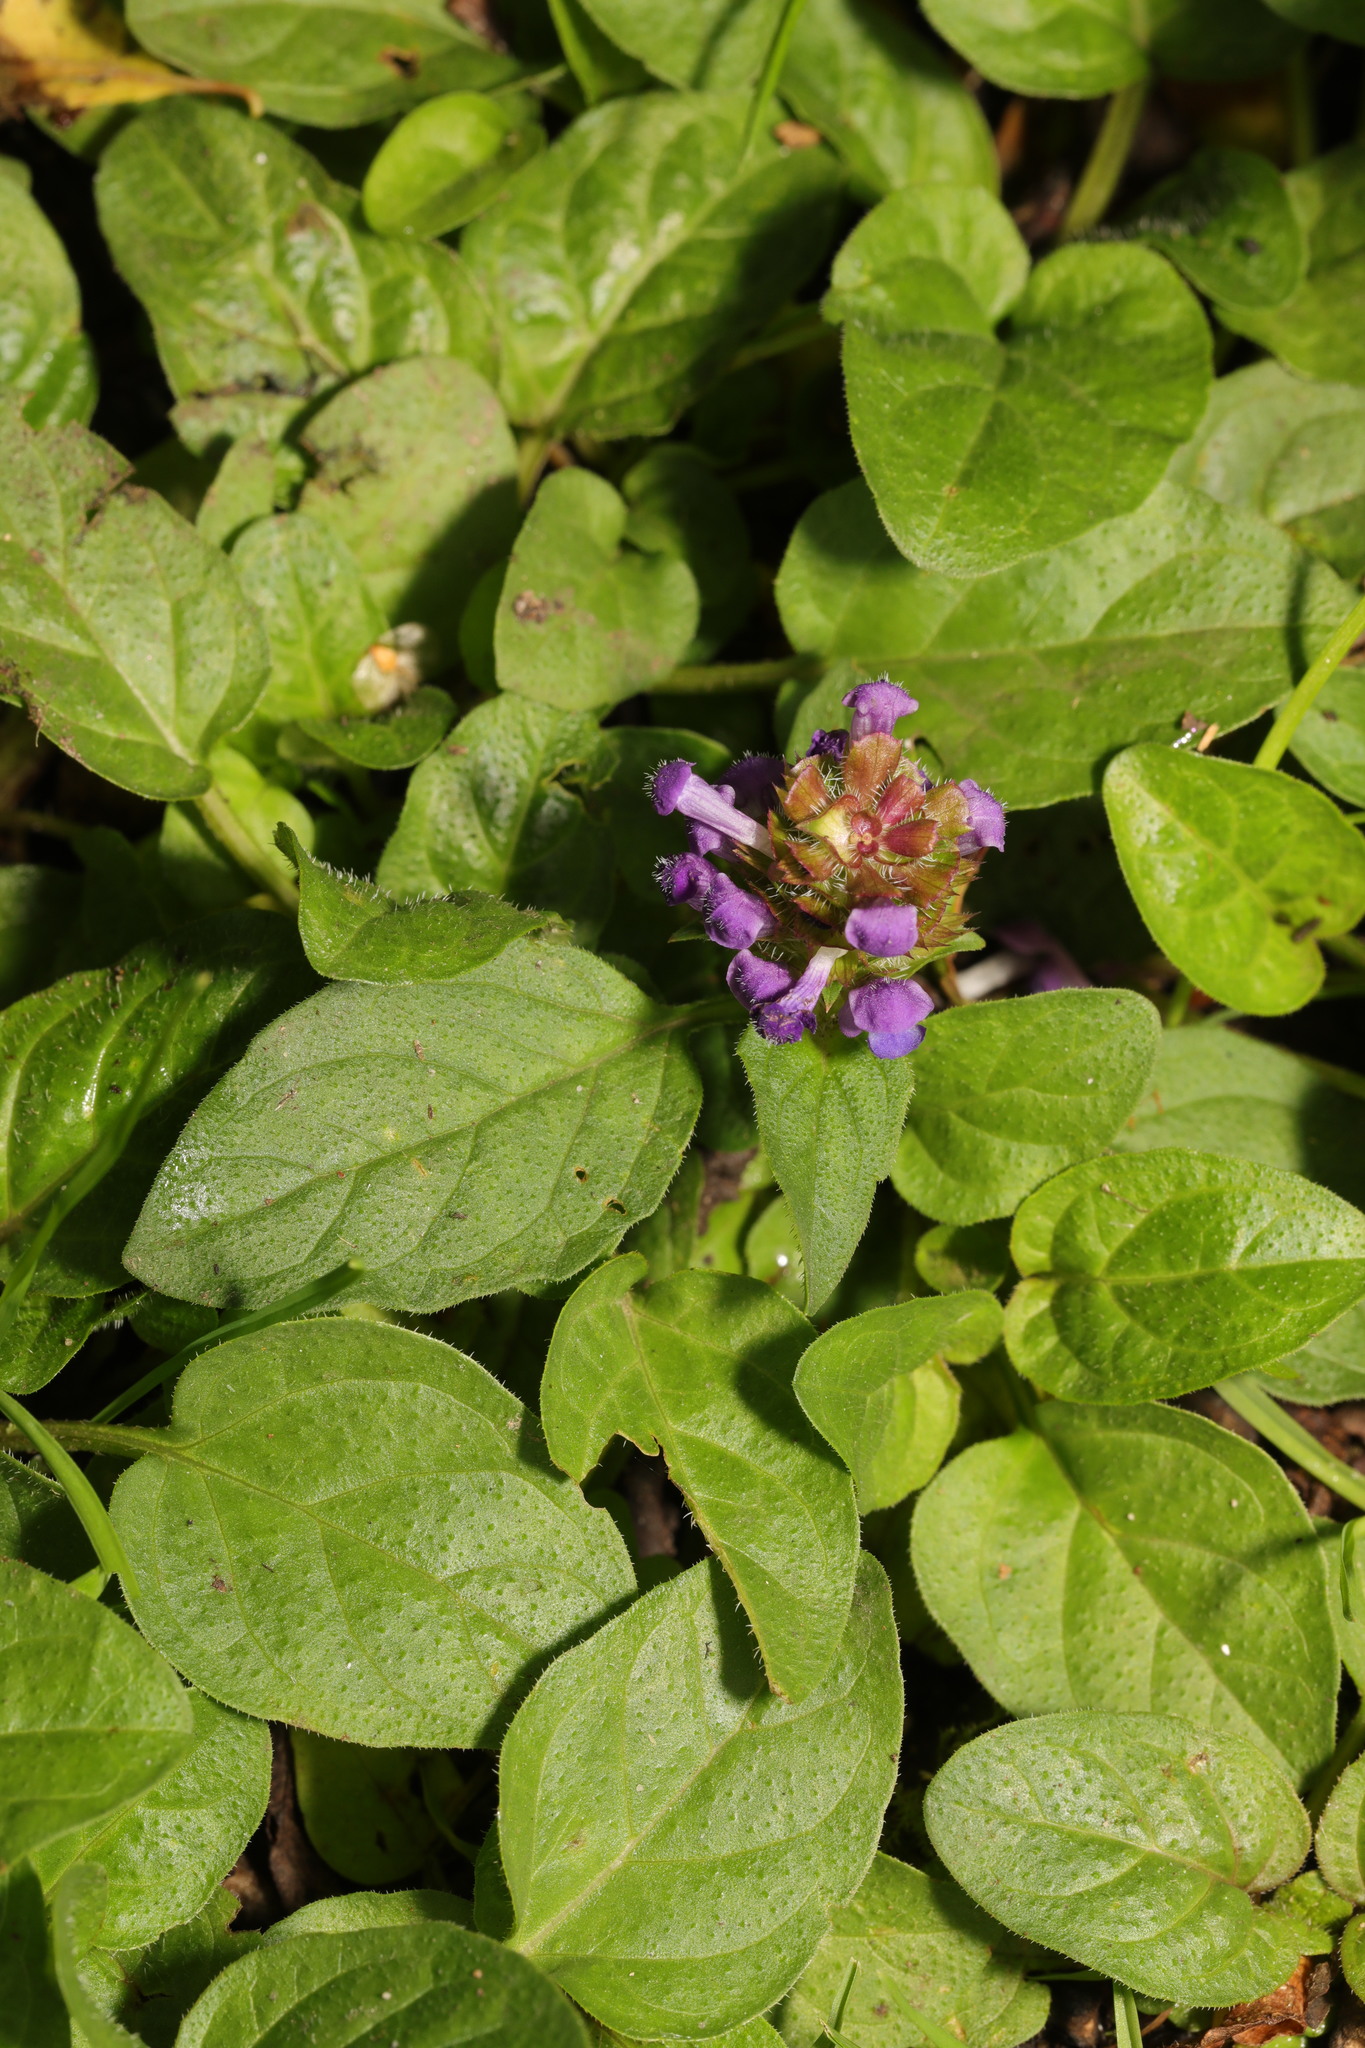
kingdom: Plantae
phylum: Tracheophyta
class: Magnoliopsida
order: Lamiales
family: Lamiaceae
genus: Prunella
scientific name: Prunella vulgaris
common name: Heal-all
